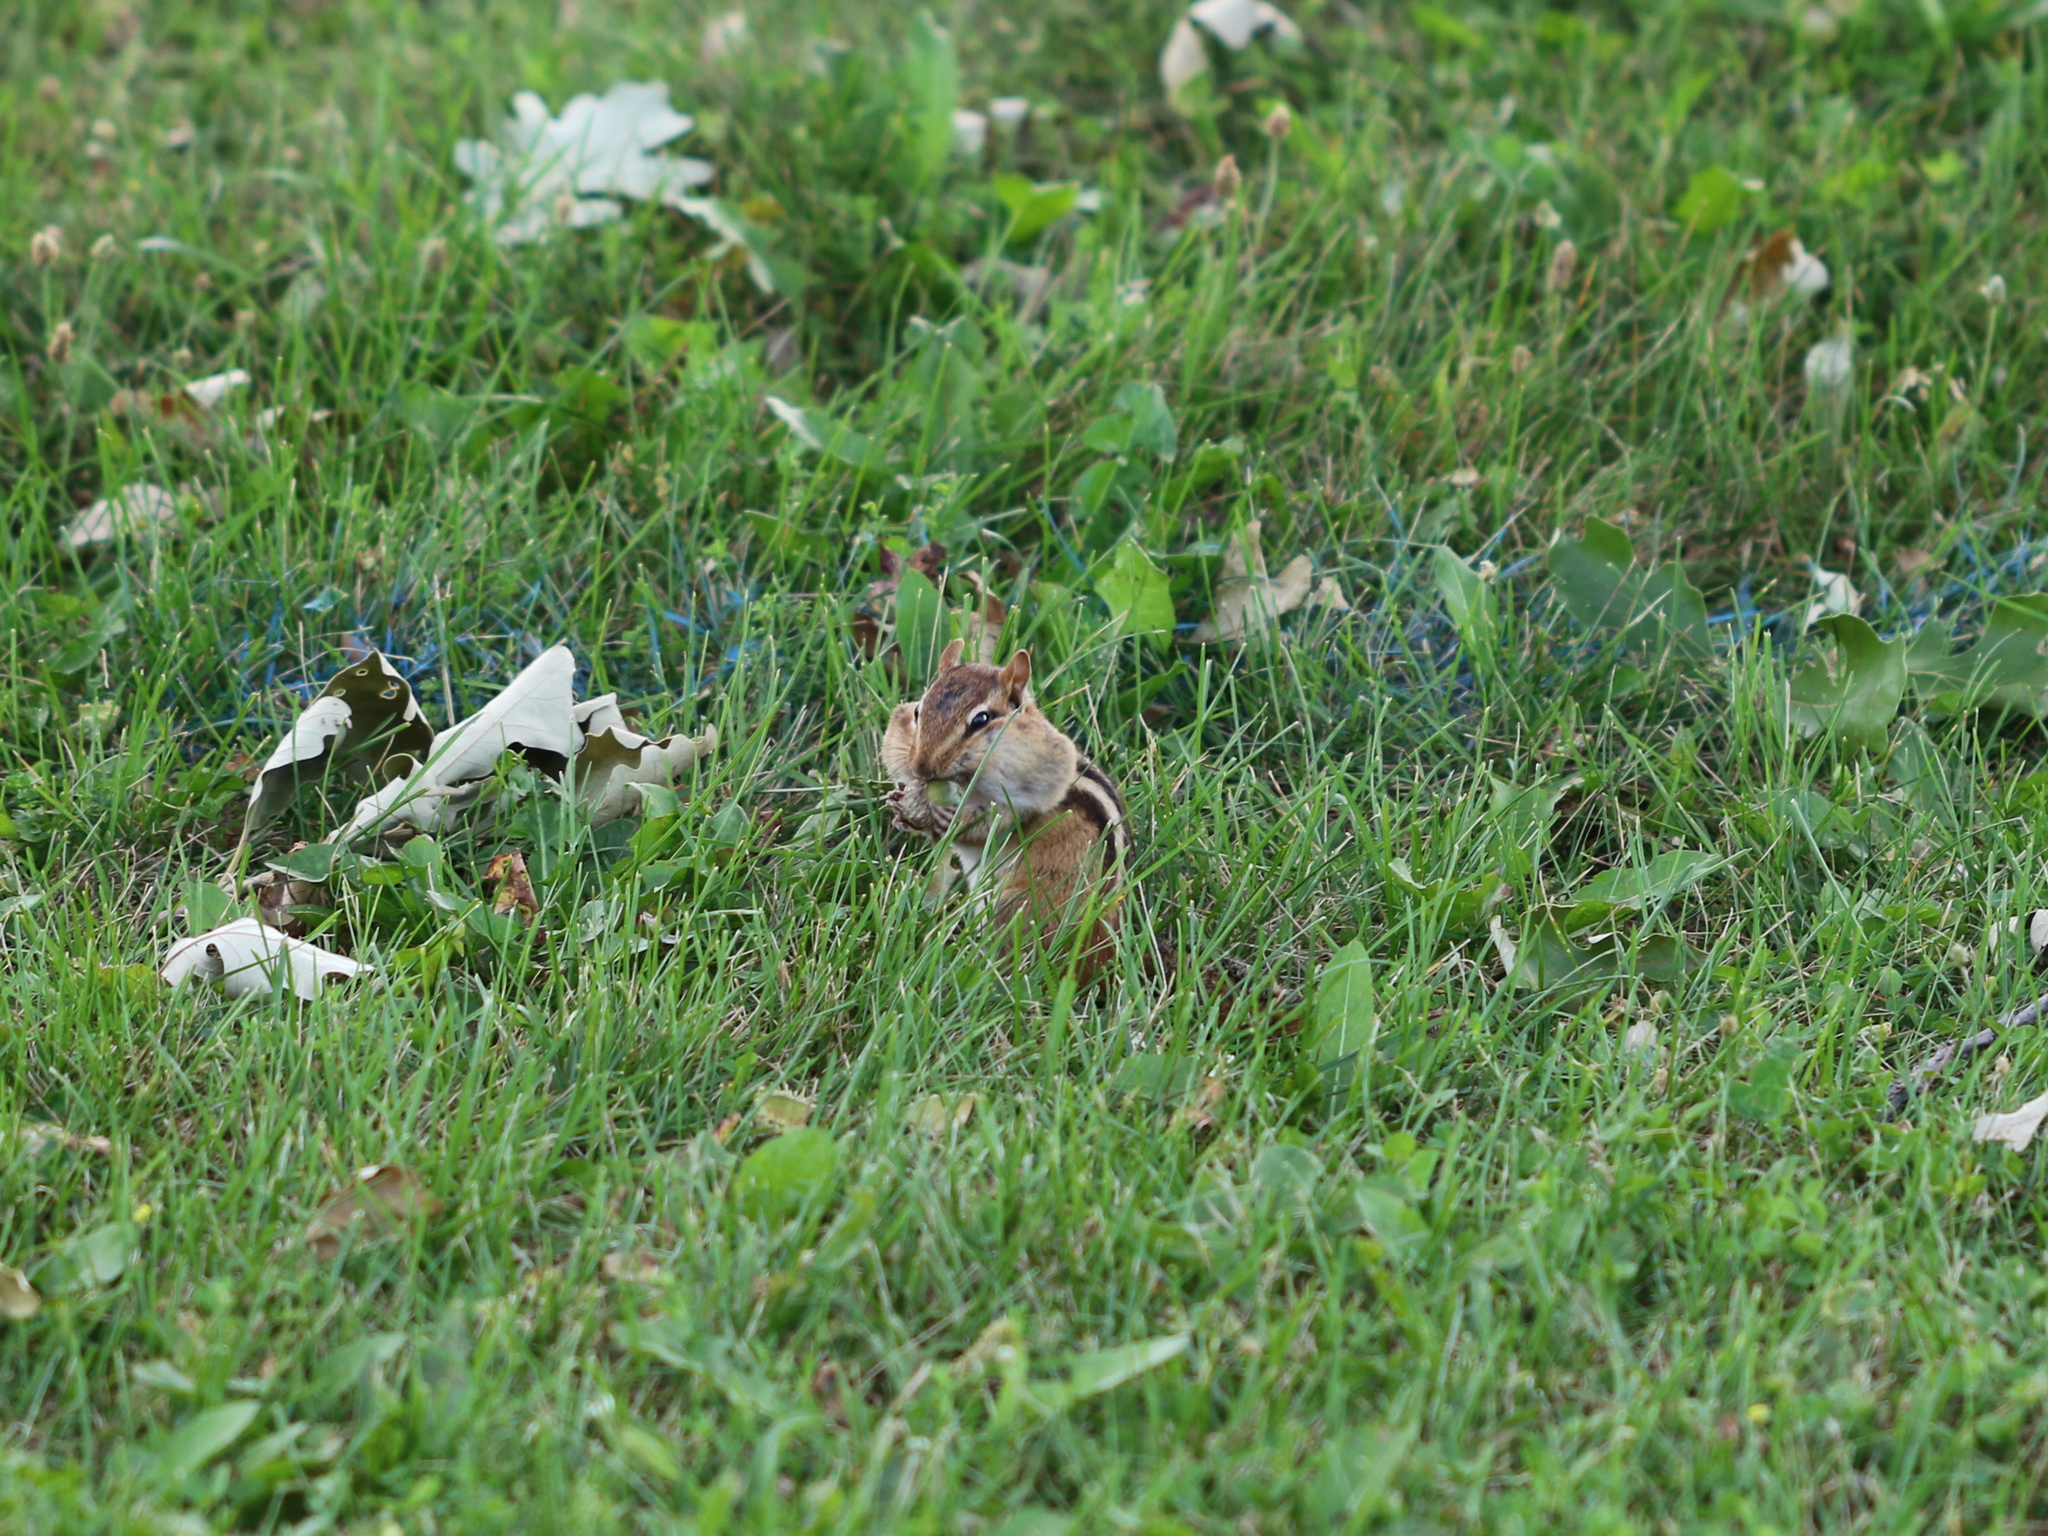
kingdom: Animalia
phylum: Chordata
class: Mammalia
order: Rodentia
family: Sciuridae
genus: Tamias
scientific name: Tamias striatus
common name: Eastern chipmunk
